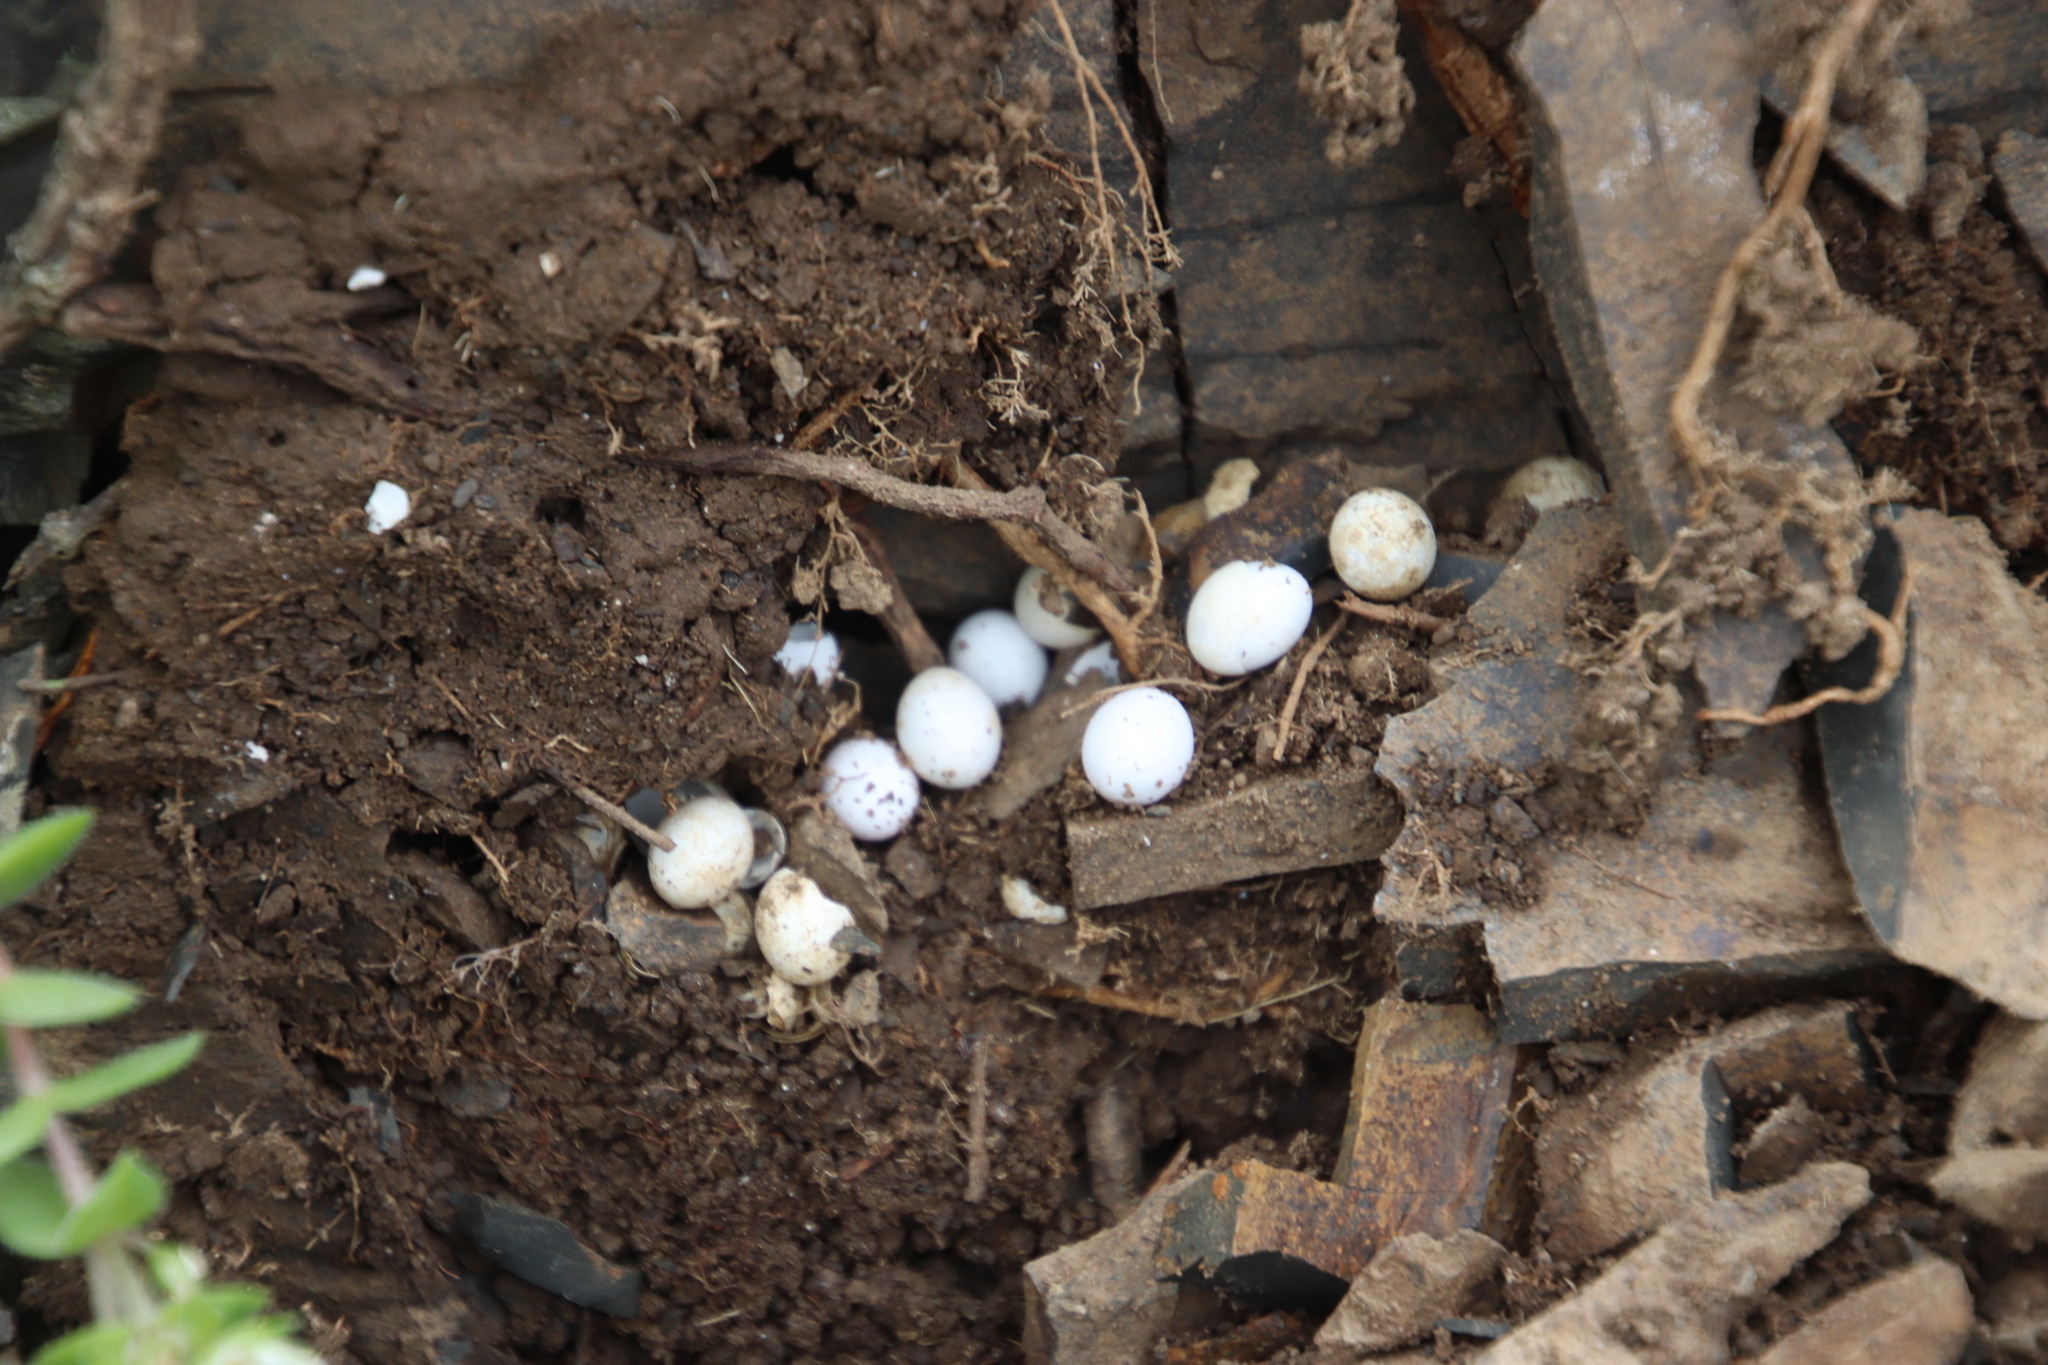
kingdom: Animalia
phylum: Chordata
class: Squamata
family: Gekkonidae
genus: Lygodactylus
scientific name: Lygodactylus capensis
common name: Cape dwarf gecko
